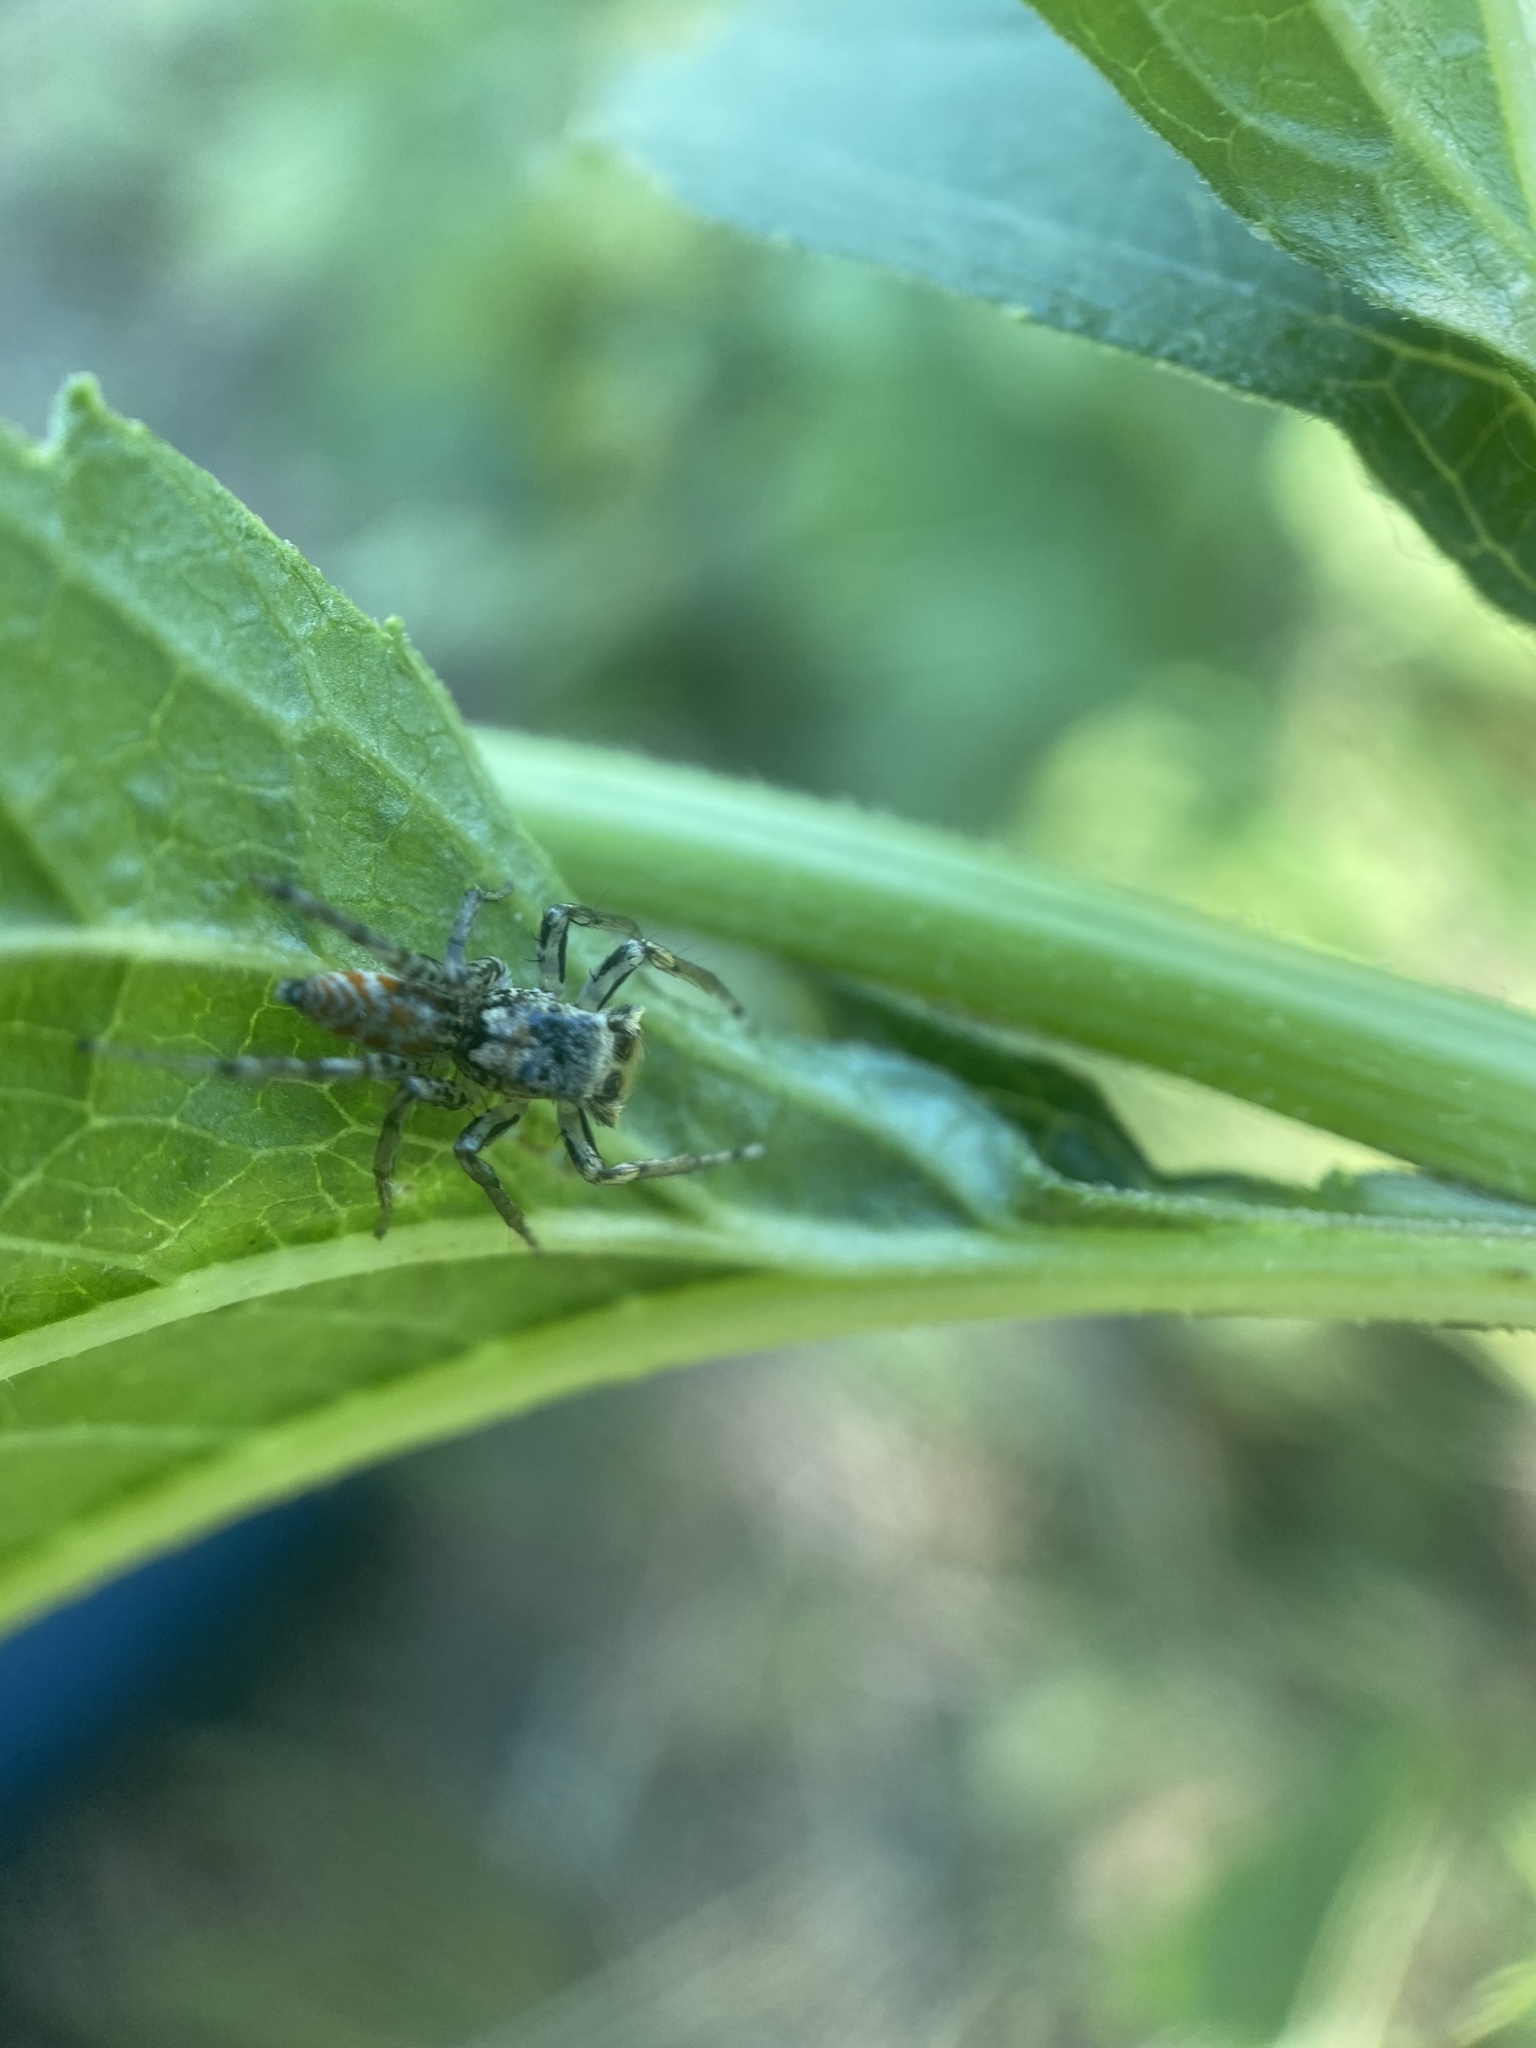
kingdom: Animalia
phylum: Arthropoda
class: Arachnida
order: Araneae
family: Salticidae
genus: Maevia
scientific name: Maevia inclemens
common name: Dimorphic jumper
